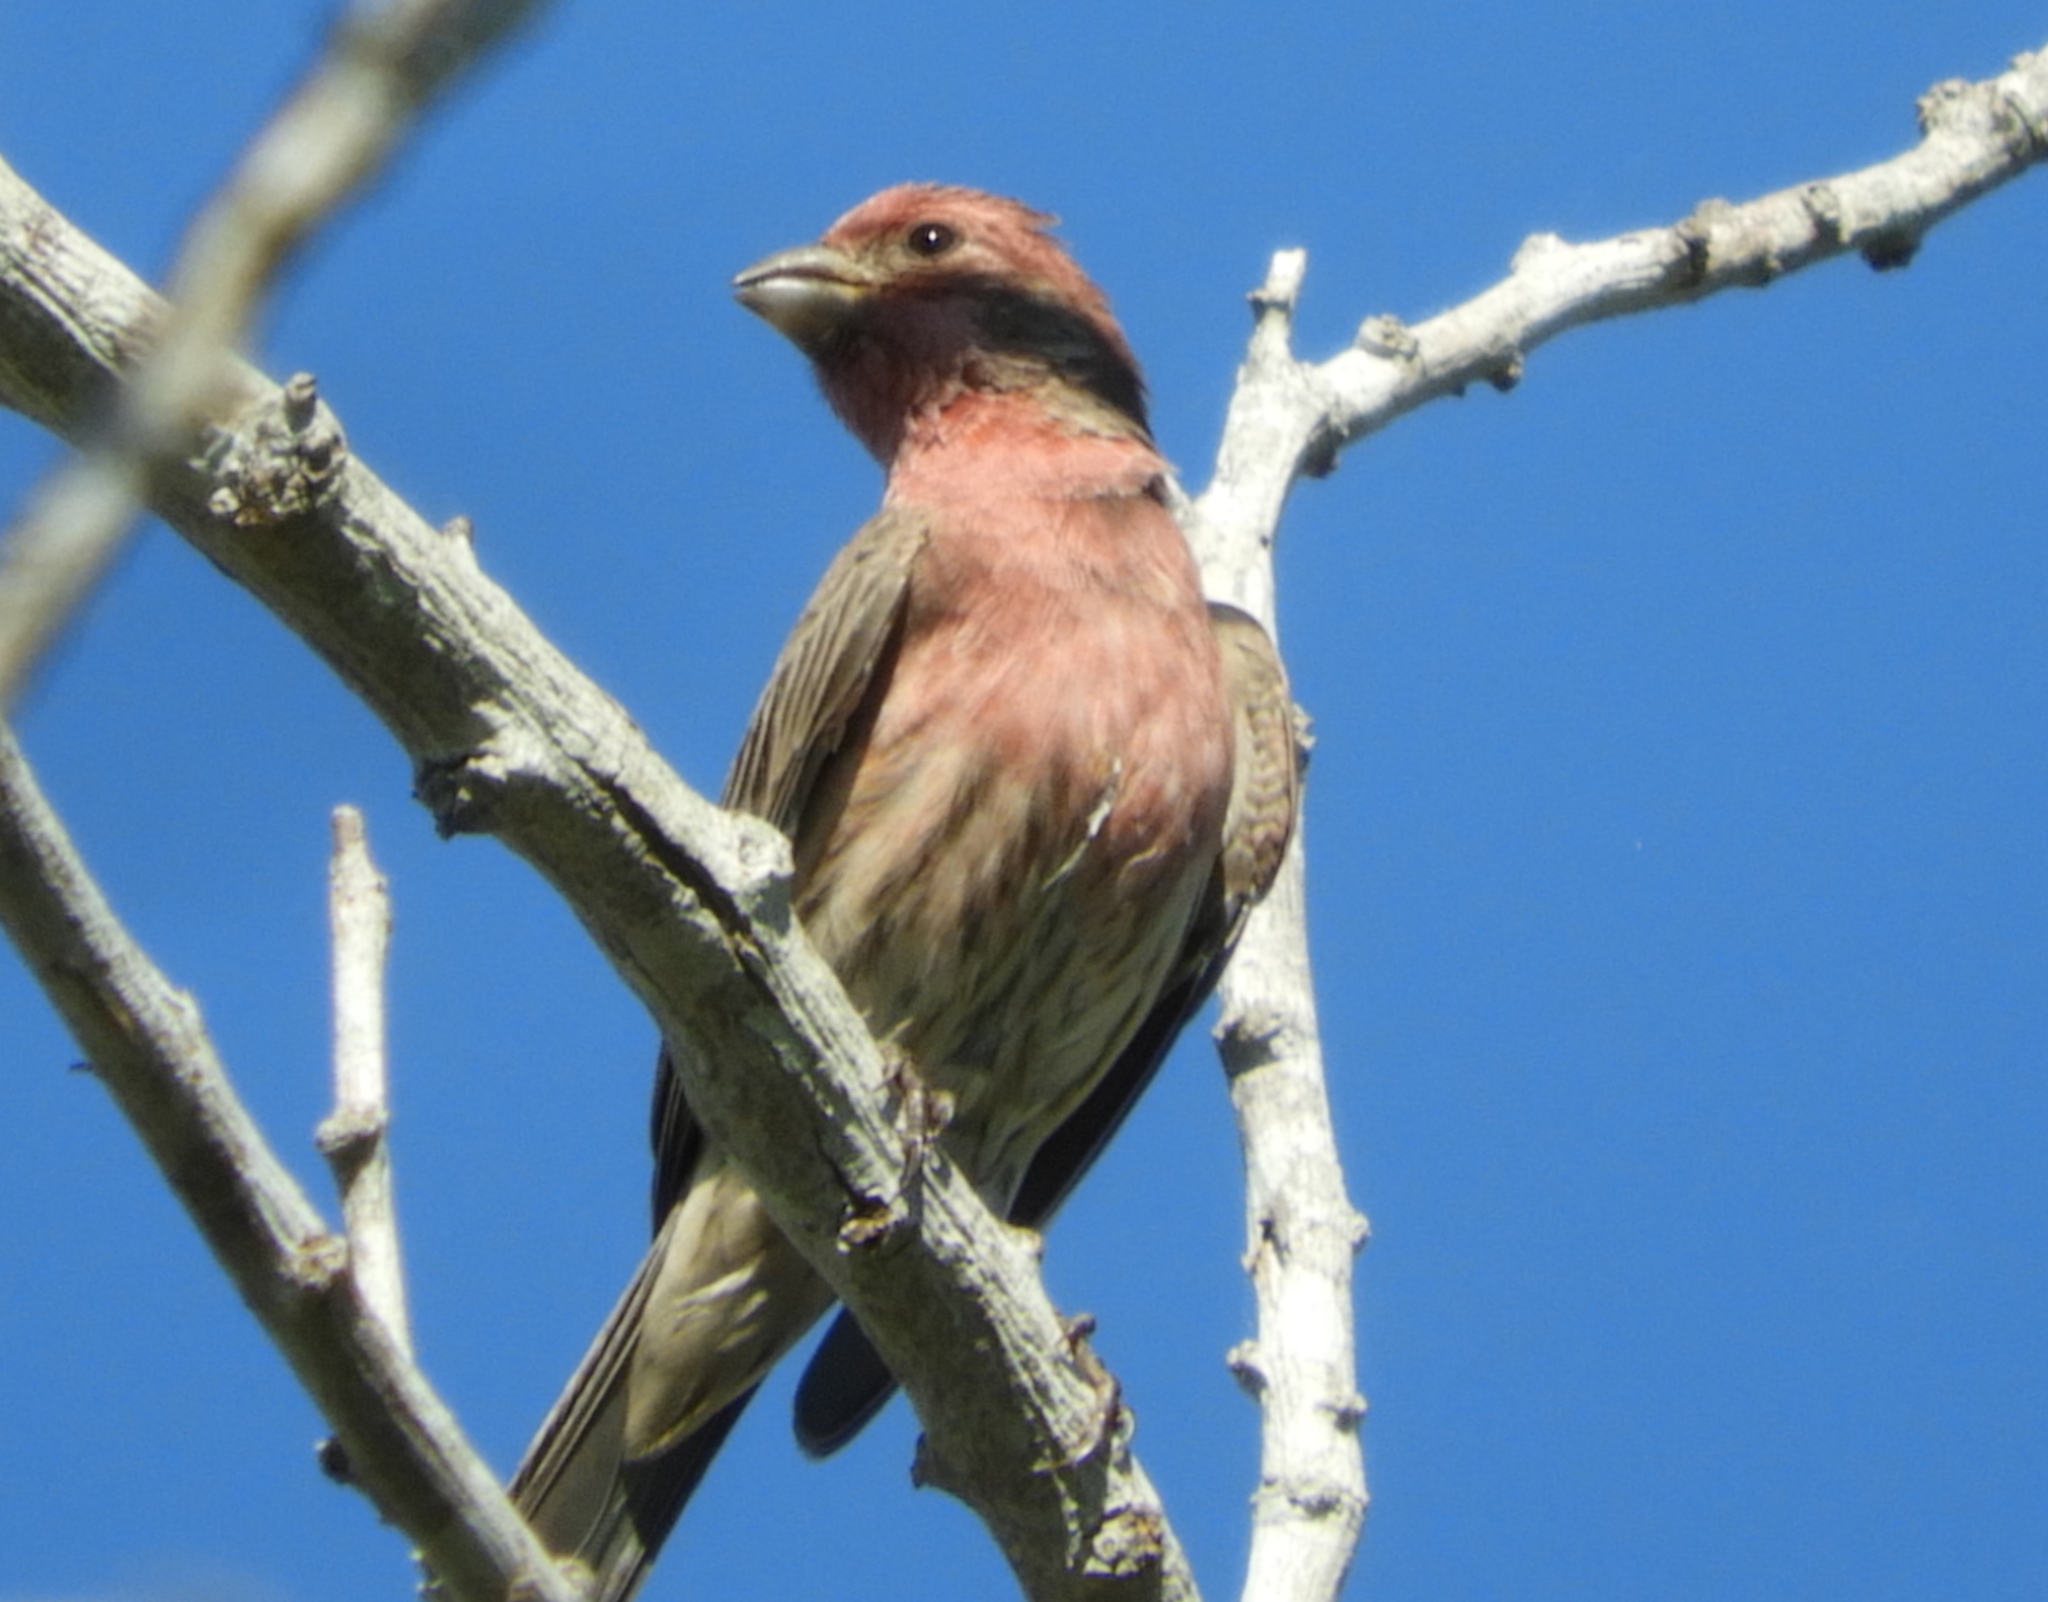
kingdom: Animalia
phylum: Chordata
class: Aves
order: Passeriformes
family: Fringillidae
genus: Haemorhous
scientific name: Haemorhous mexicanus
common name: House finch
